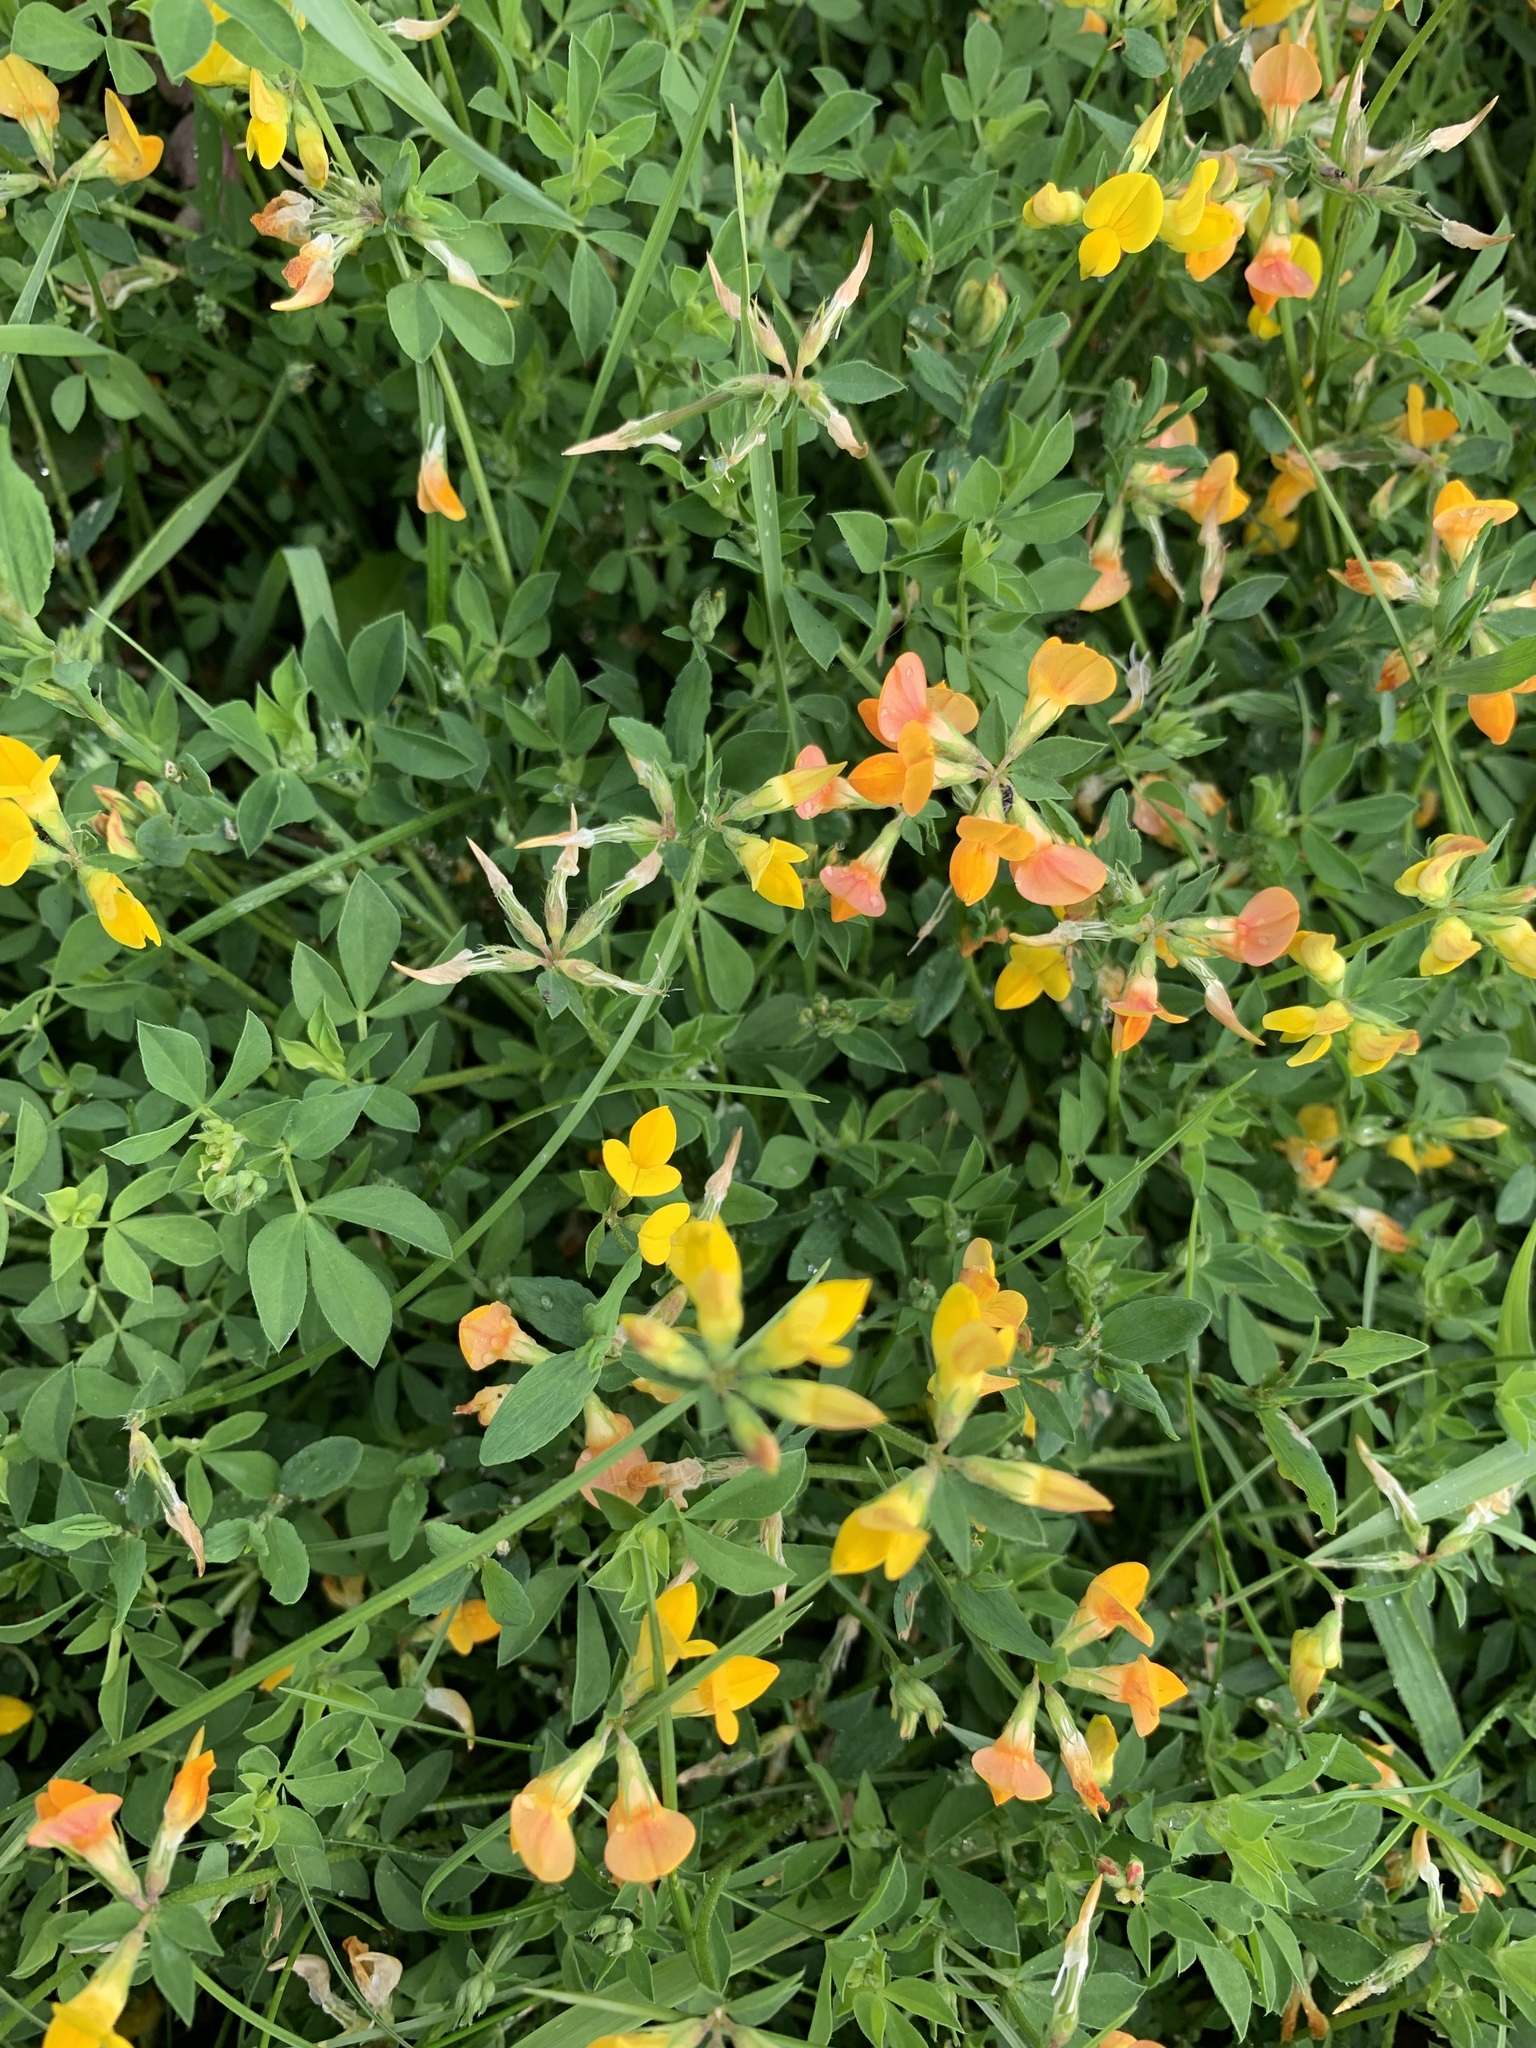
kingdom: Plantae
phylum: Tracheophyta
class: Magnoliopsida
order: Fabales
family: Fabaceae
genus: Lotus
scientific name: Lotus corniculatus
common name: Common bird's-foot-trefoil
